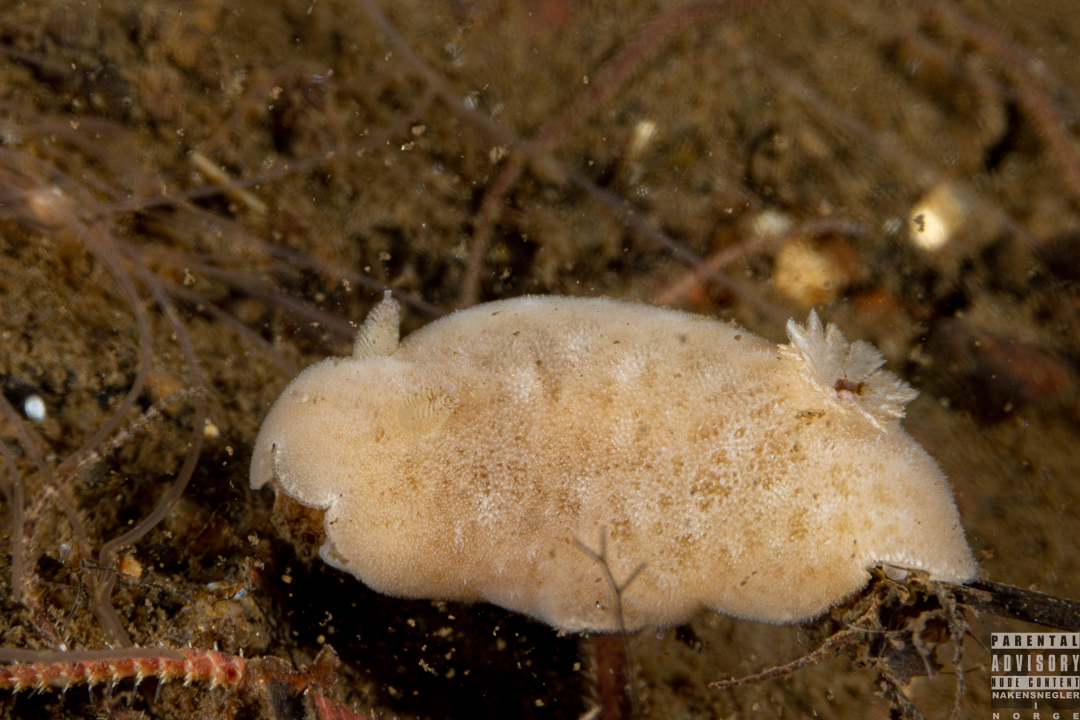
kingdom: Animalia
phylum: Mollusca
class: Gastropoda
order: Nudibranchia
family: Discodorididae
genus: Jorunna
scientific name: Jorunna tomentosa
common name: Grey sea slug
